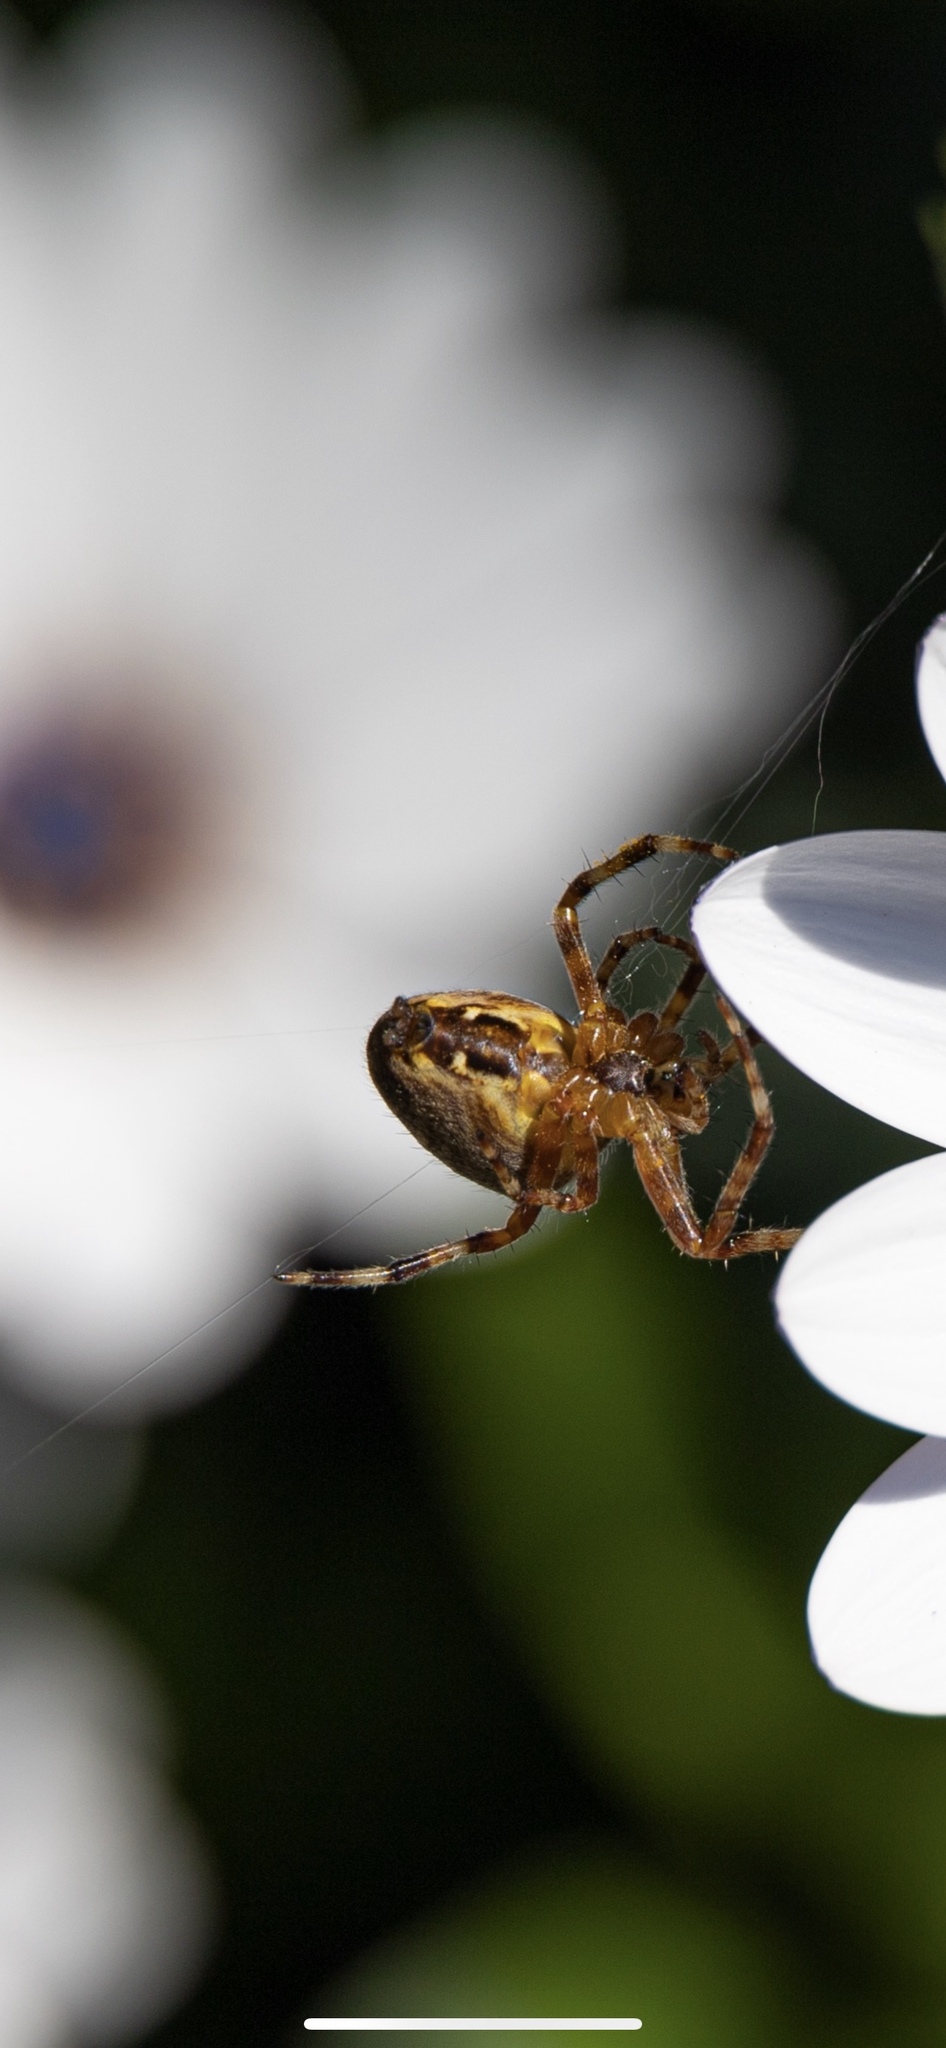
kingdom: Animalia
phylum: Arthropoda
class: Arachnida
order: Araneae
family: Araneidae
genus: Araneus
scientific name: Araneus diadematus
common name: Cross orbweaver
